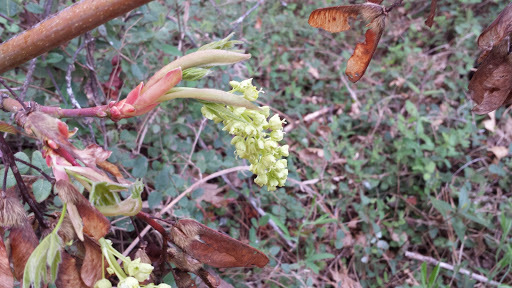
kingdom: Plantae
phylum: Tracheophyta
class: Magnoliopsida
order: Sapindales
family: Sapindaceae
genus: Acer
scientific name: Acer macrophyllum
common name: Oregon maple
